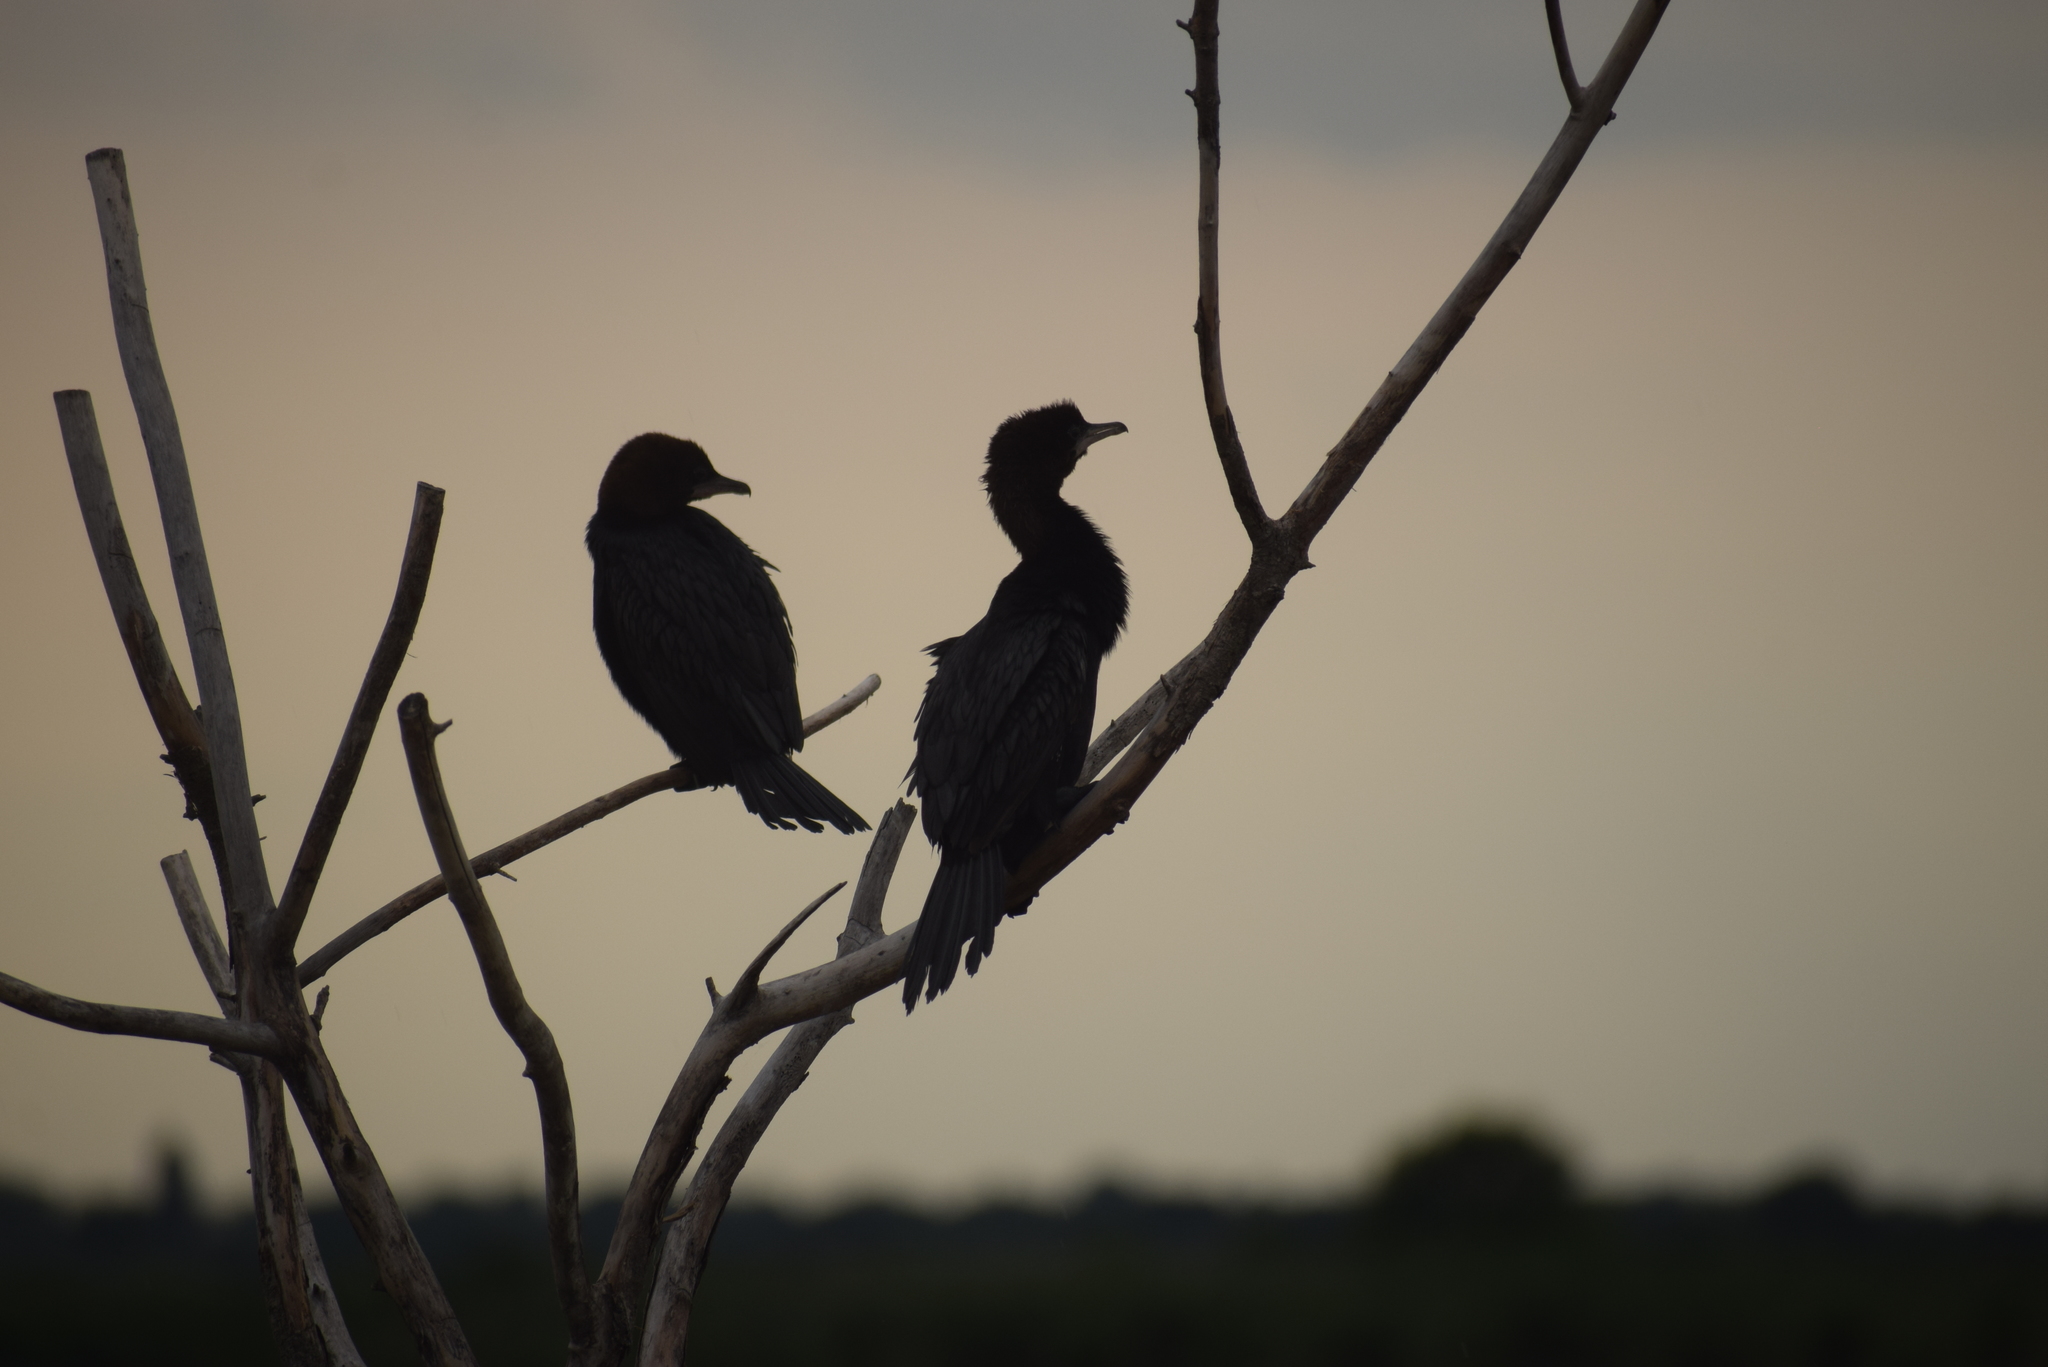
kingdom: Animalia
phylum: Chordata
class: Aves
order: Suliformes
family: Phalacrocoracidae
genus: Microcarbo
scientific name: Microcarbo pygmaeus
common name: Pygmy cormorant
